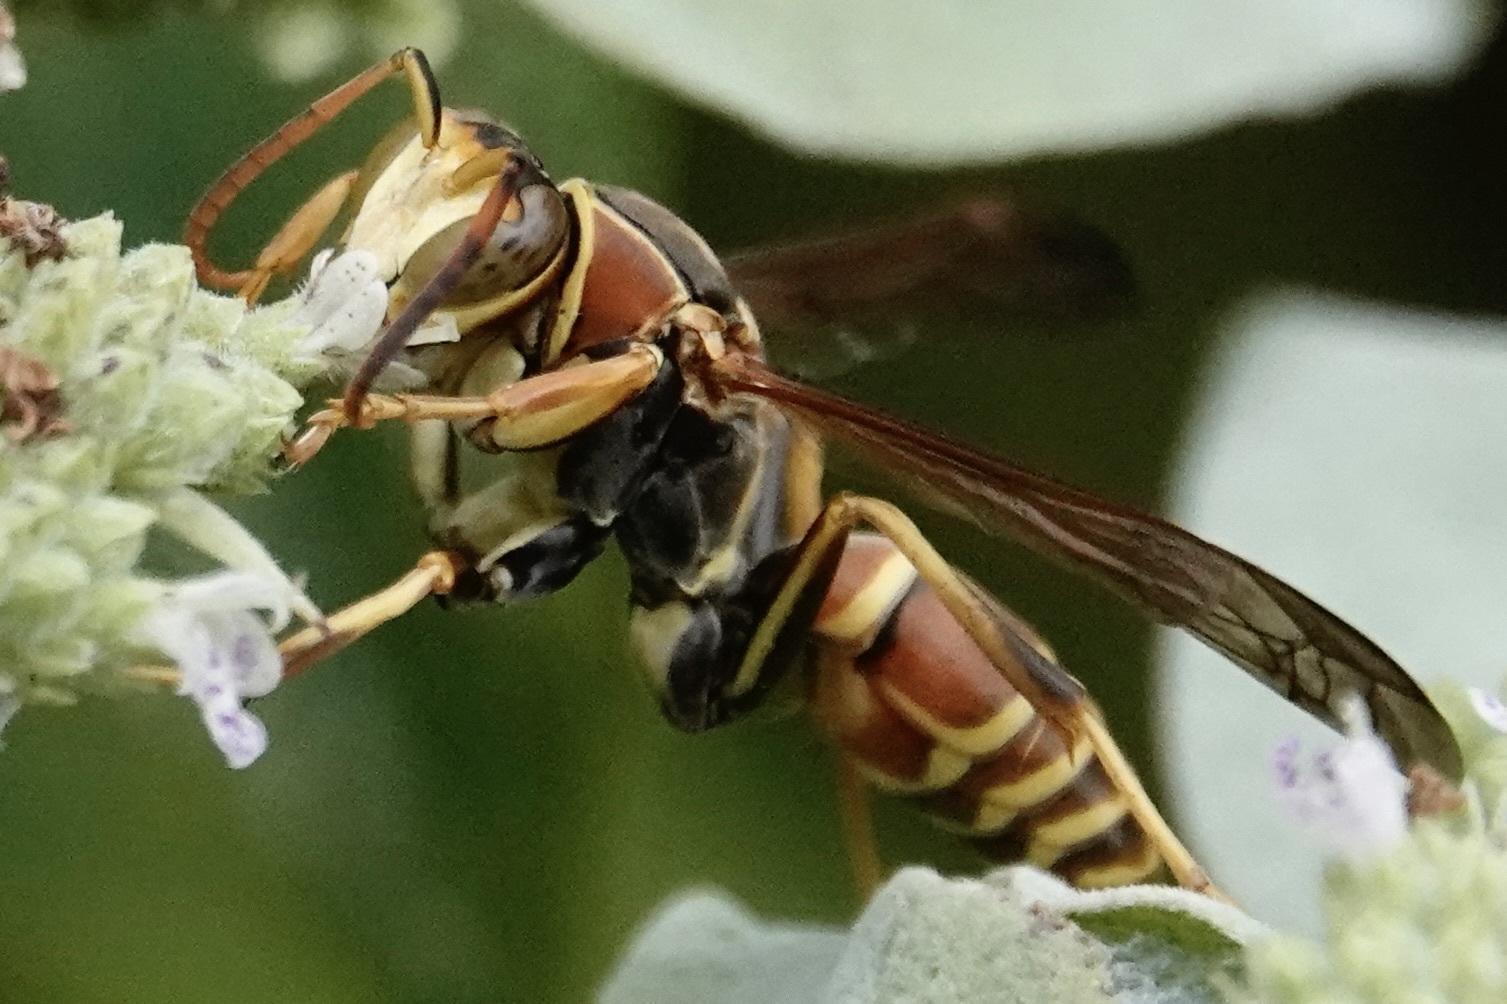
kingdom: Animalia
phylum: Arthropoda
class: Insecta
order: Hymenoptera
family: Eumenidae
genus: Polistes
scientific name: Polistes dorsalis
